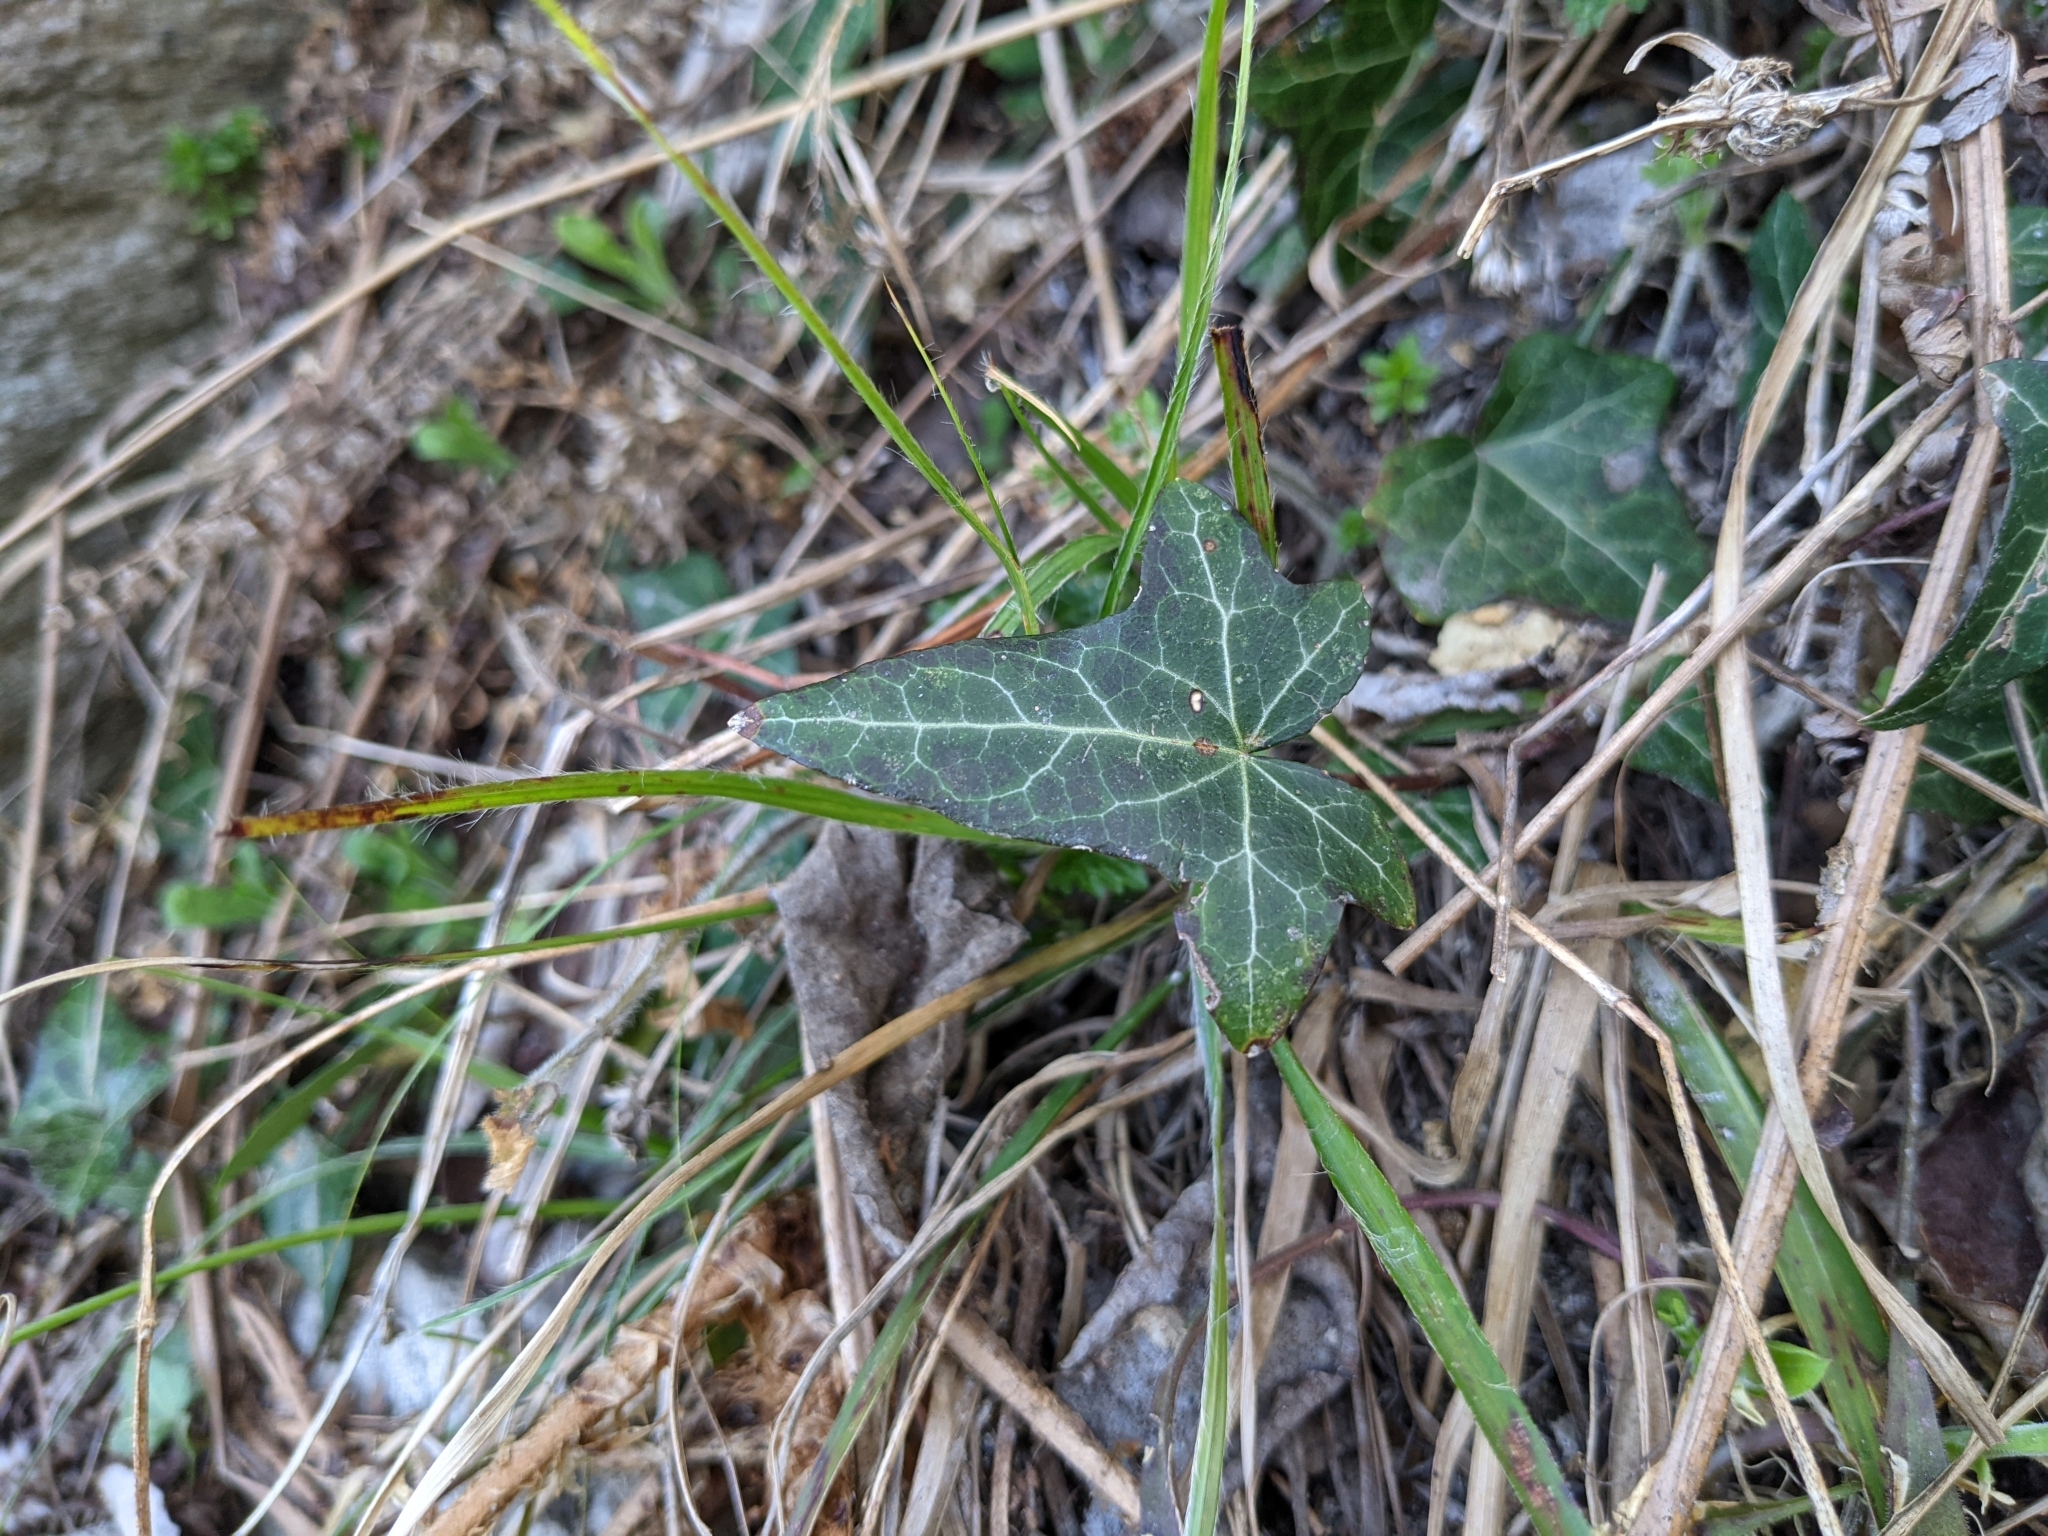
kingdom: Plantae
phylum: Tracheophyta
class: Magnoliopsida
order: Apiales
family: Araliaceae
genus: Hedera
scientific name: Hedera helix
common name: Ivy
